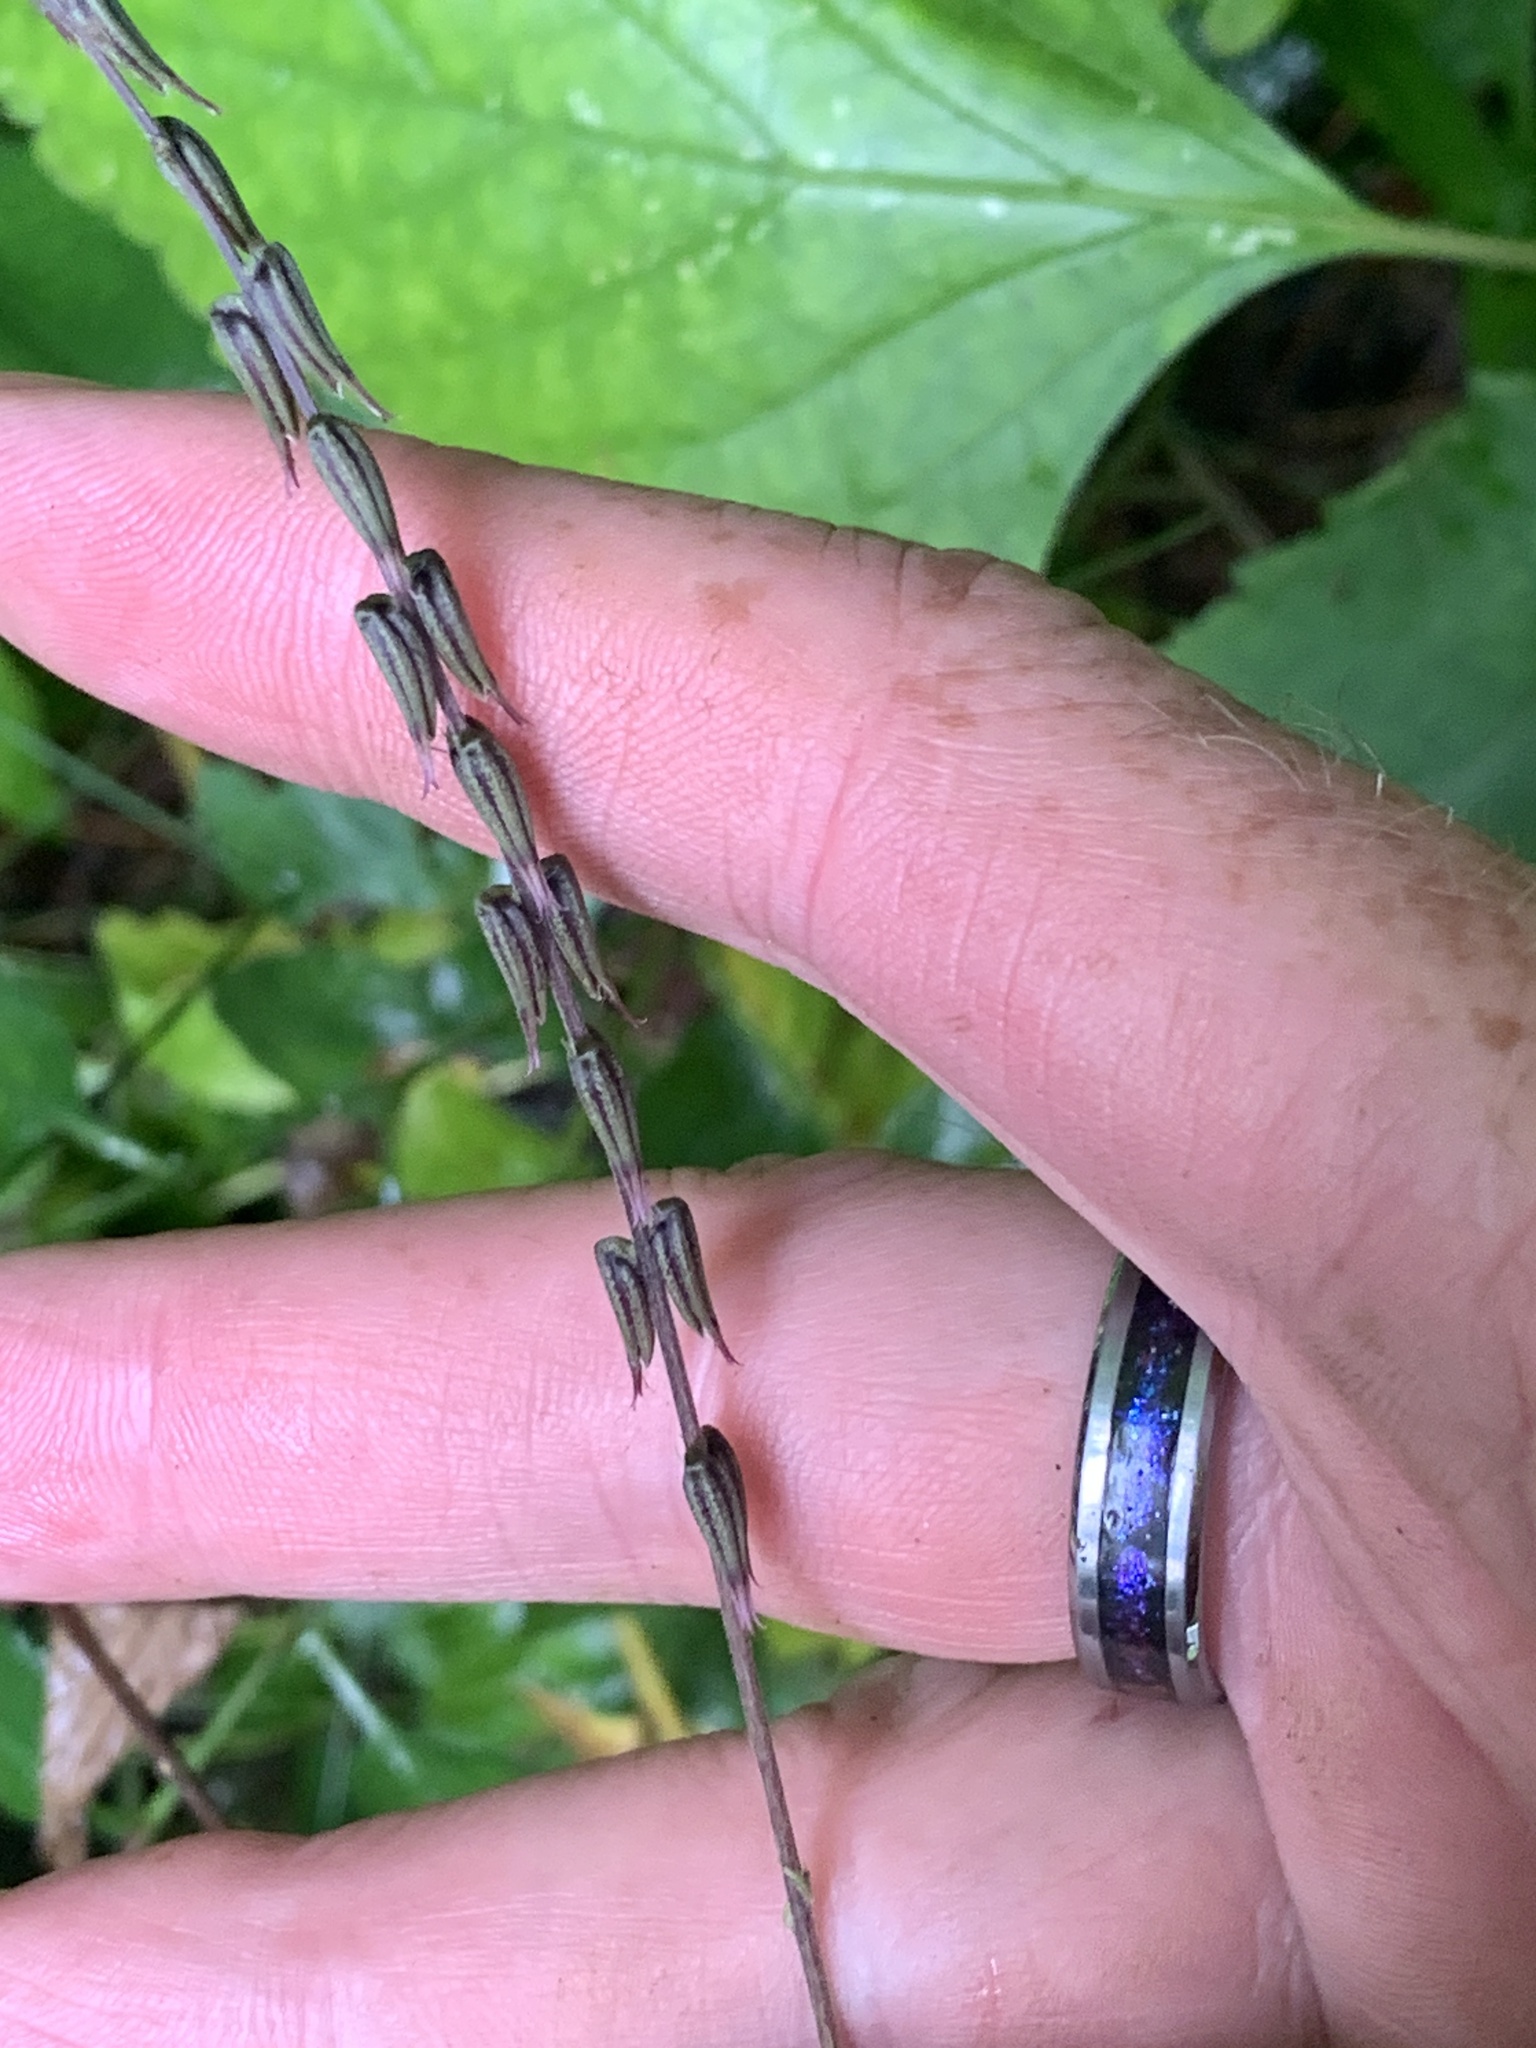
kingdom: Plantae
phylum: Tracheophyta
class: Magnoliopsida
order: Lamiales
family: Phrymaceae
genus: Phryma
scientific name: Phryma leptostachya
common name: American lopseed
